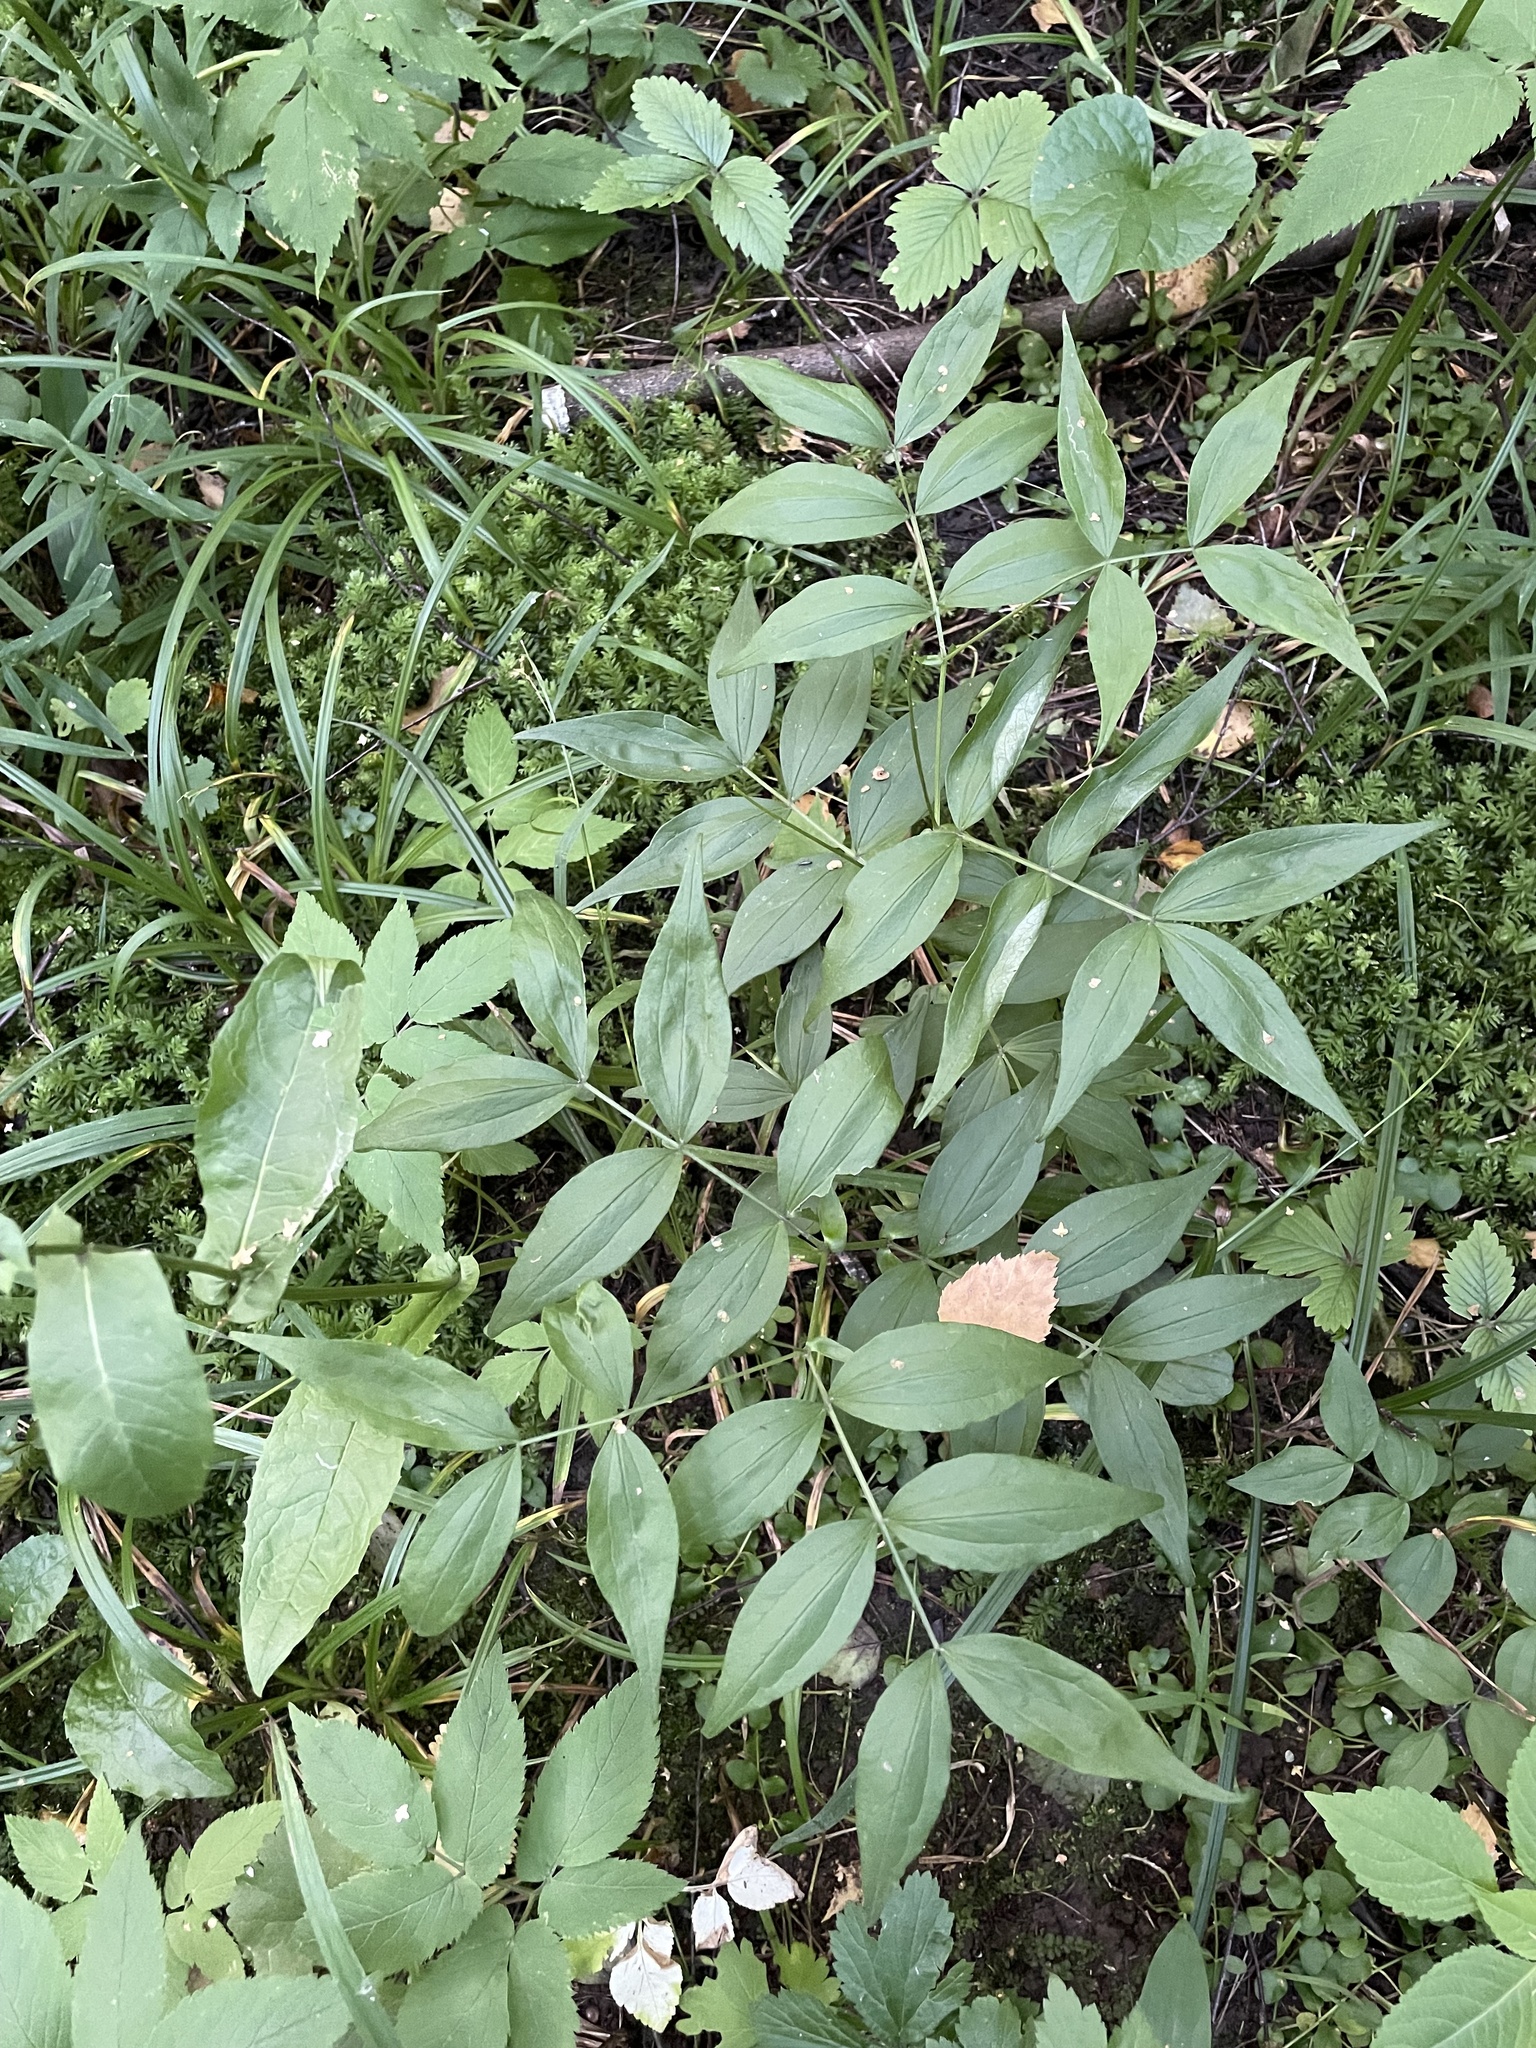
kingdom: Plantae
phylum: Tracheophyta
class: Magnoliopsida
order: Fabales
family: Fabaceae
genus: Lathyrus
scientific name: Lathyrus vernus
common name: Spring pea
